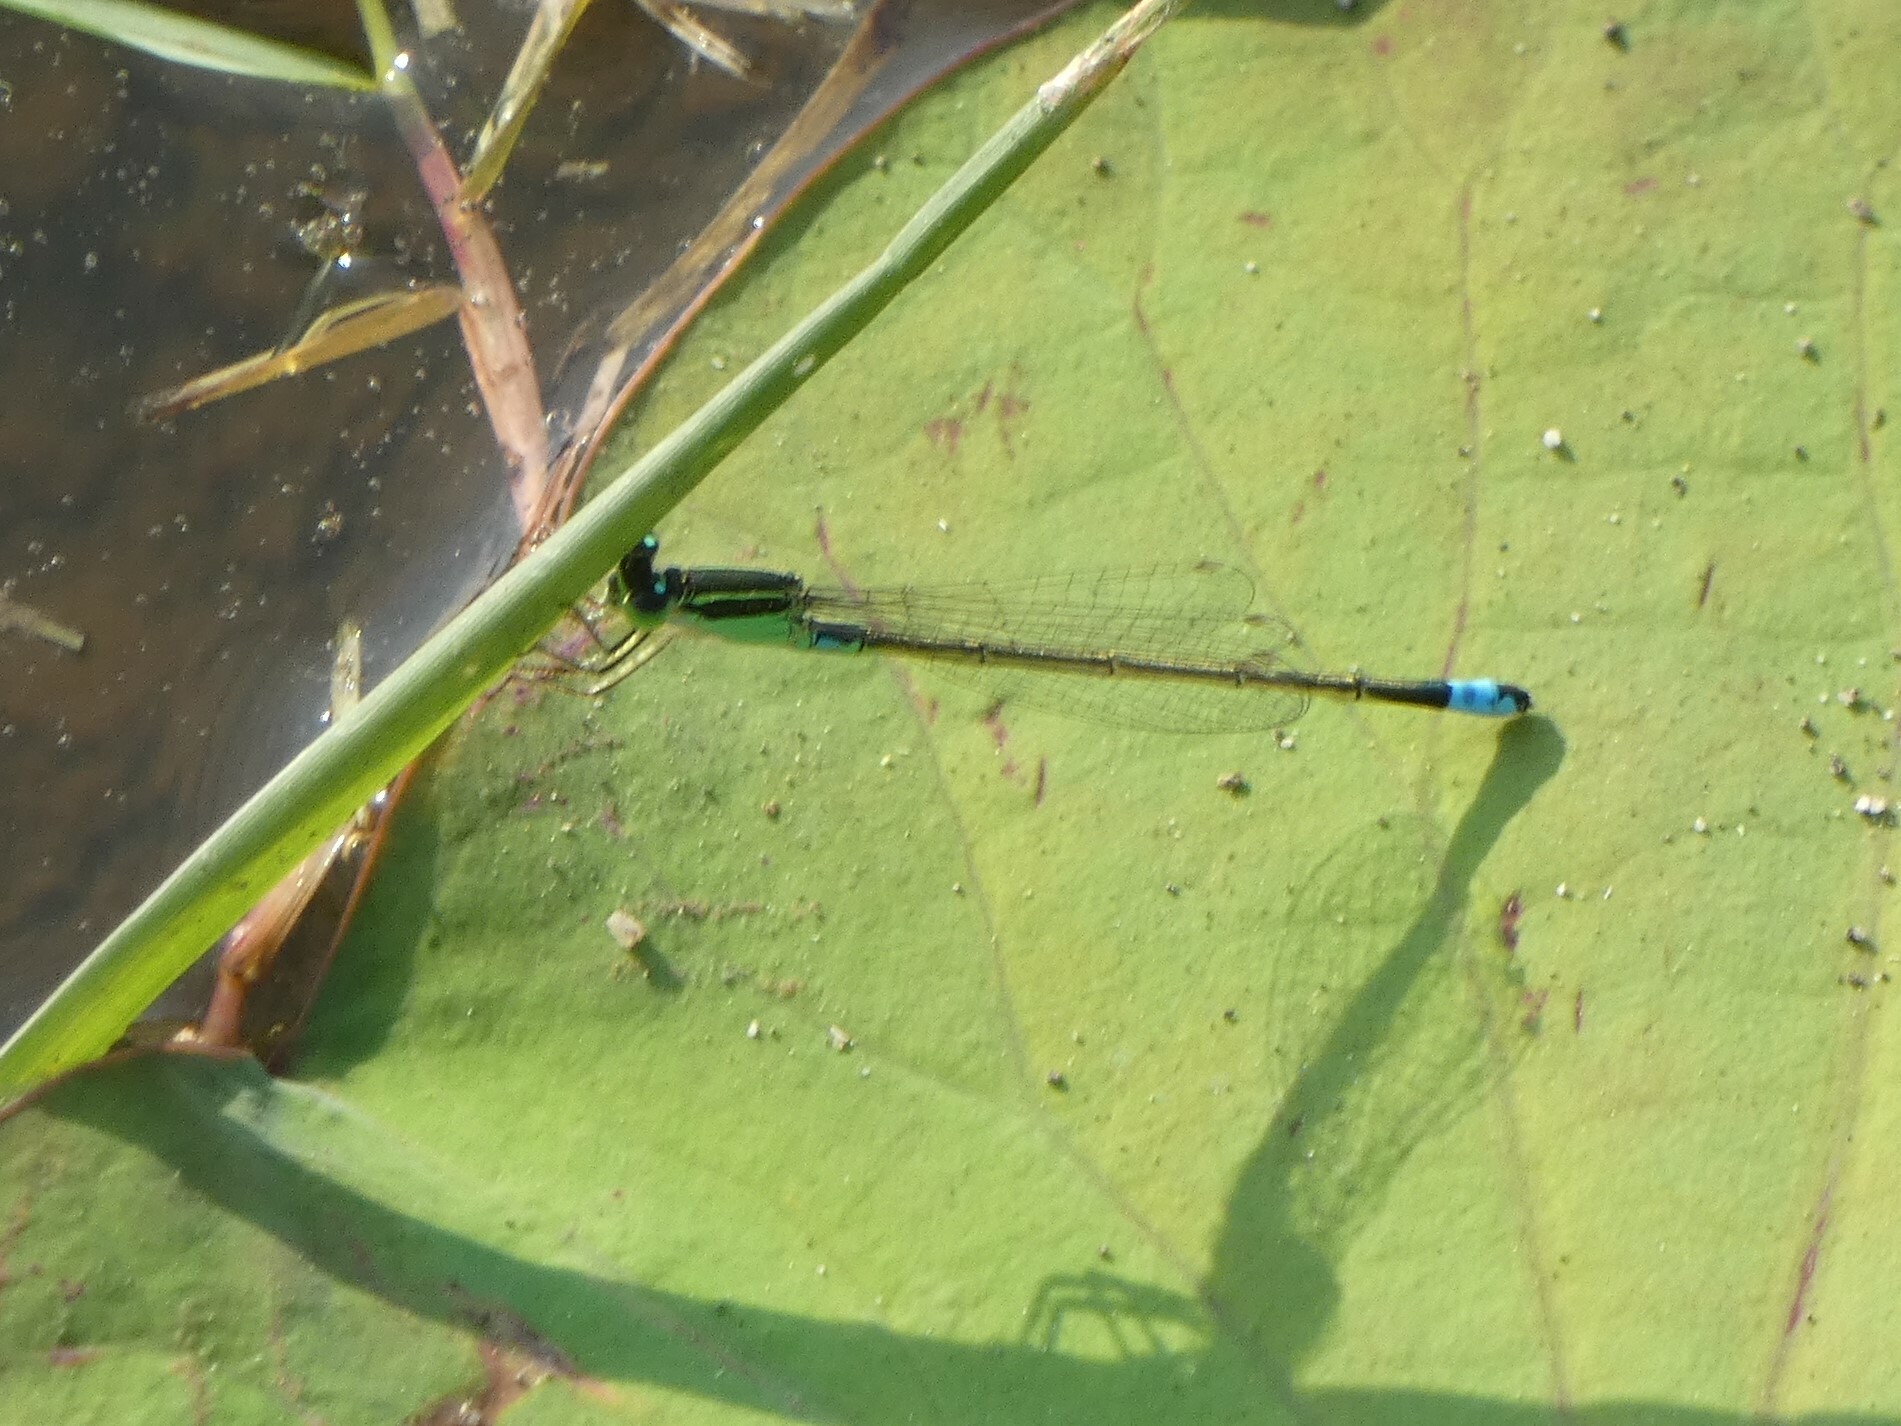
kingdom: Animalia
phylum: Arthropoda
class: Insecta
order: Odonata
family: Coenagrionidae
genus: Ischnura
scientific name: Ischnura senegalensis
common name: Tropical bluetail
